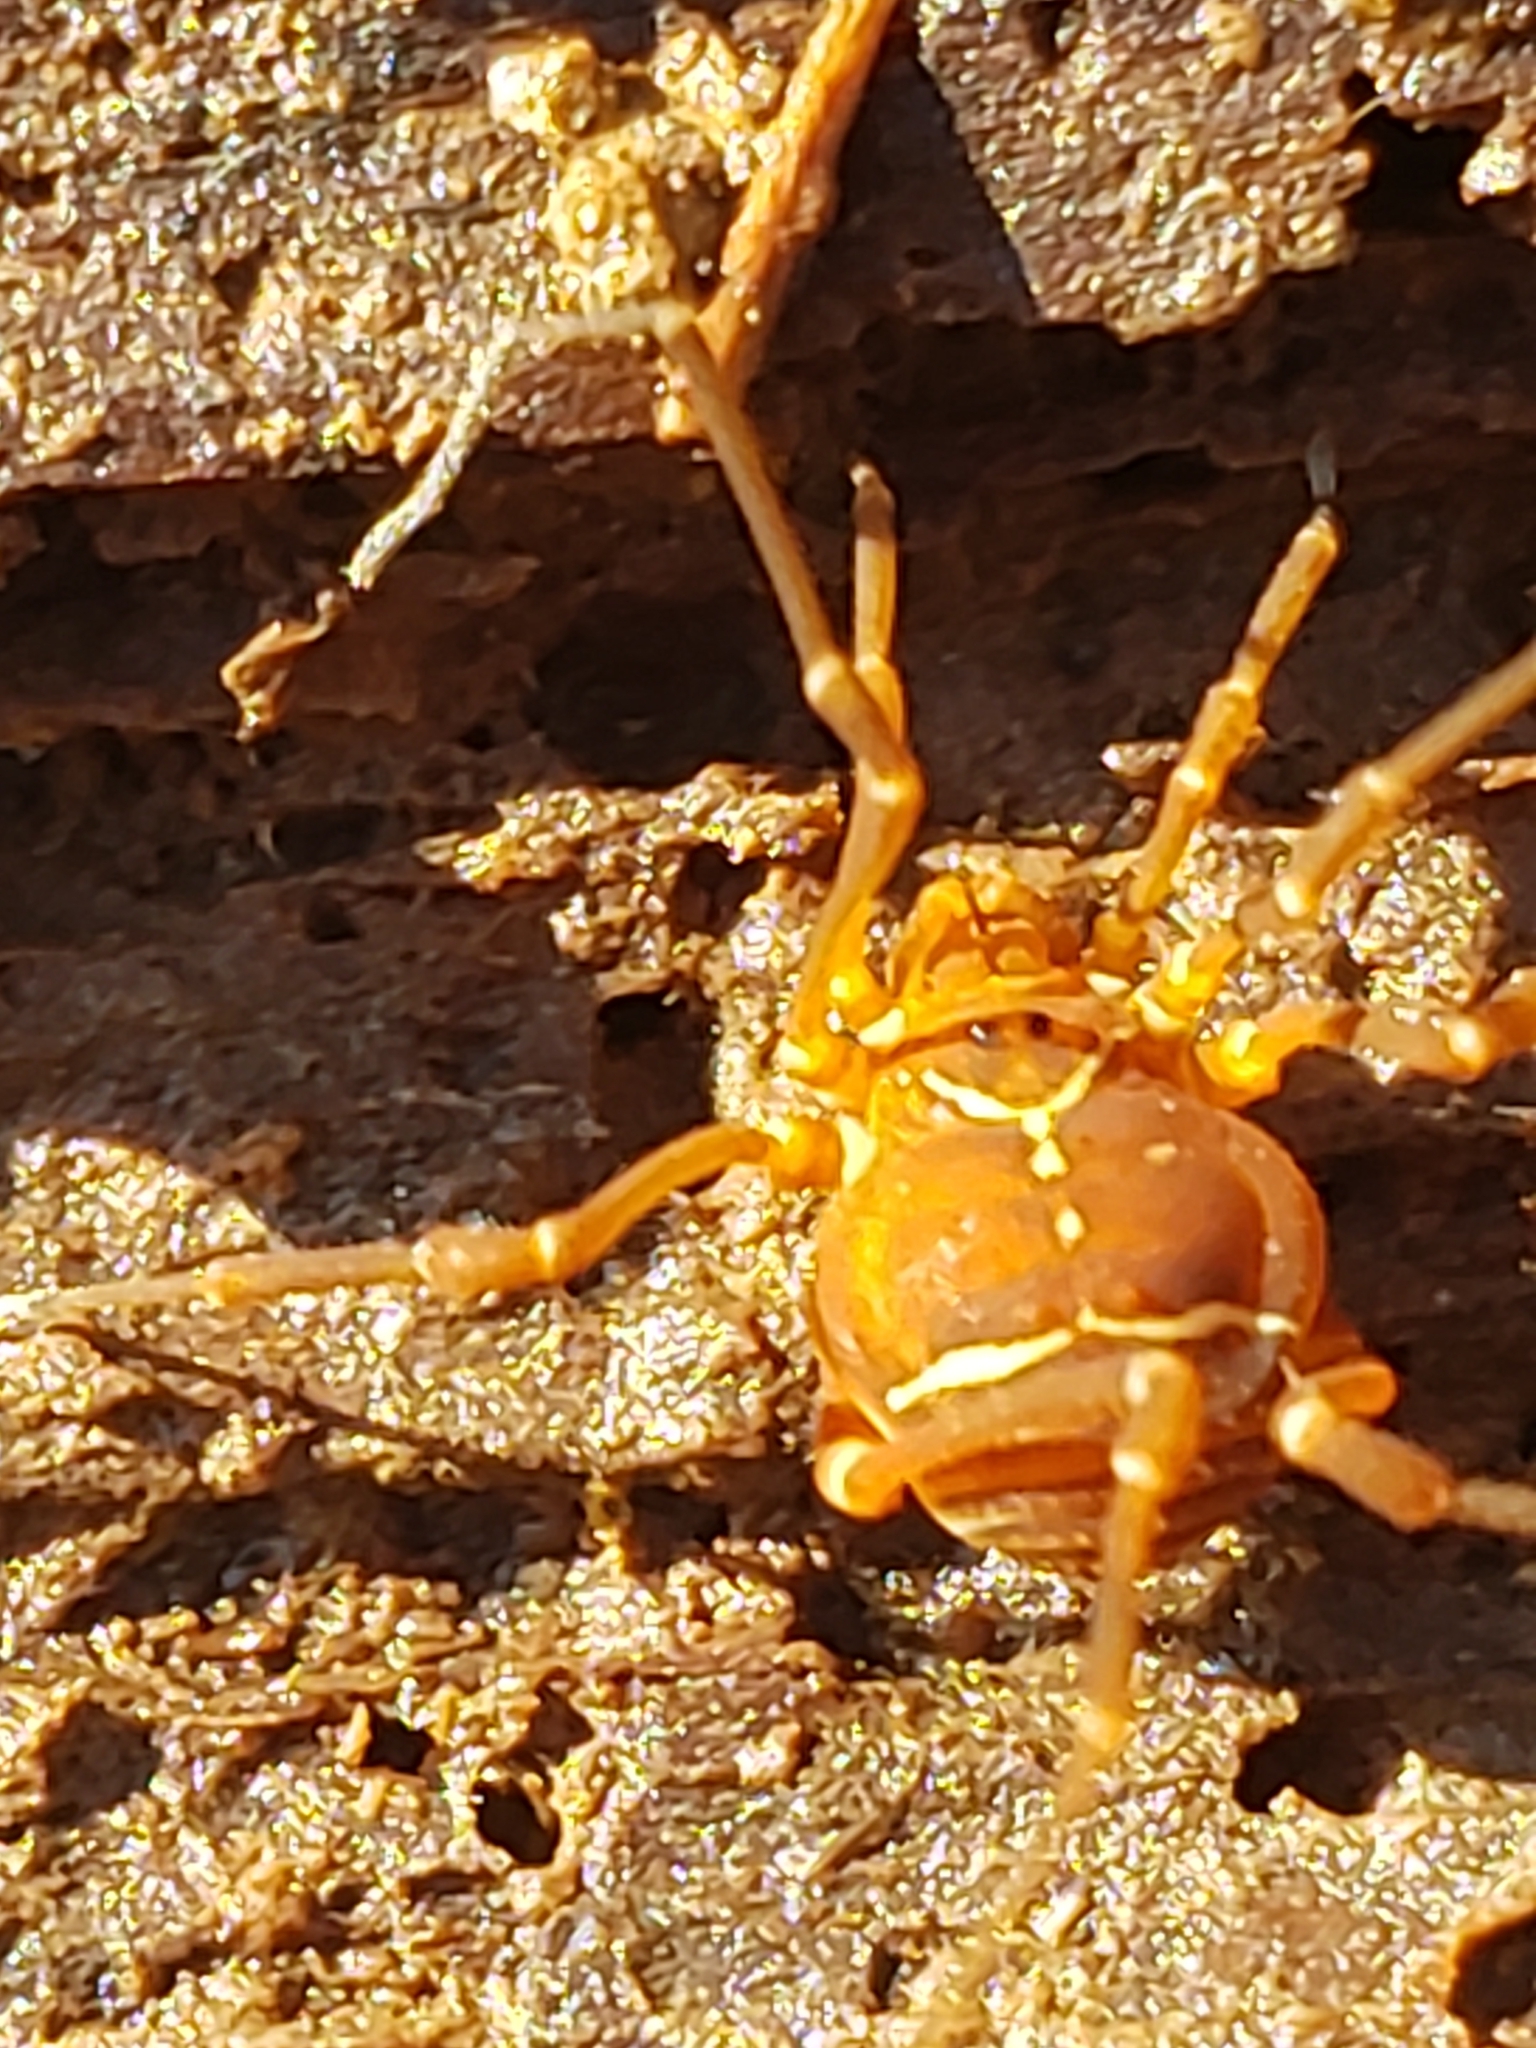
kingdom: Animalia
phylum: Arthropoda
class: Arachnida
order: Opiliones
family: Cosmetidae
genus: Libitioides
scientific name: Libitioides sayi
